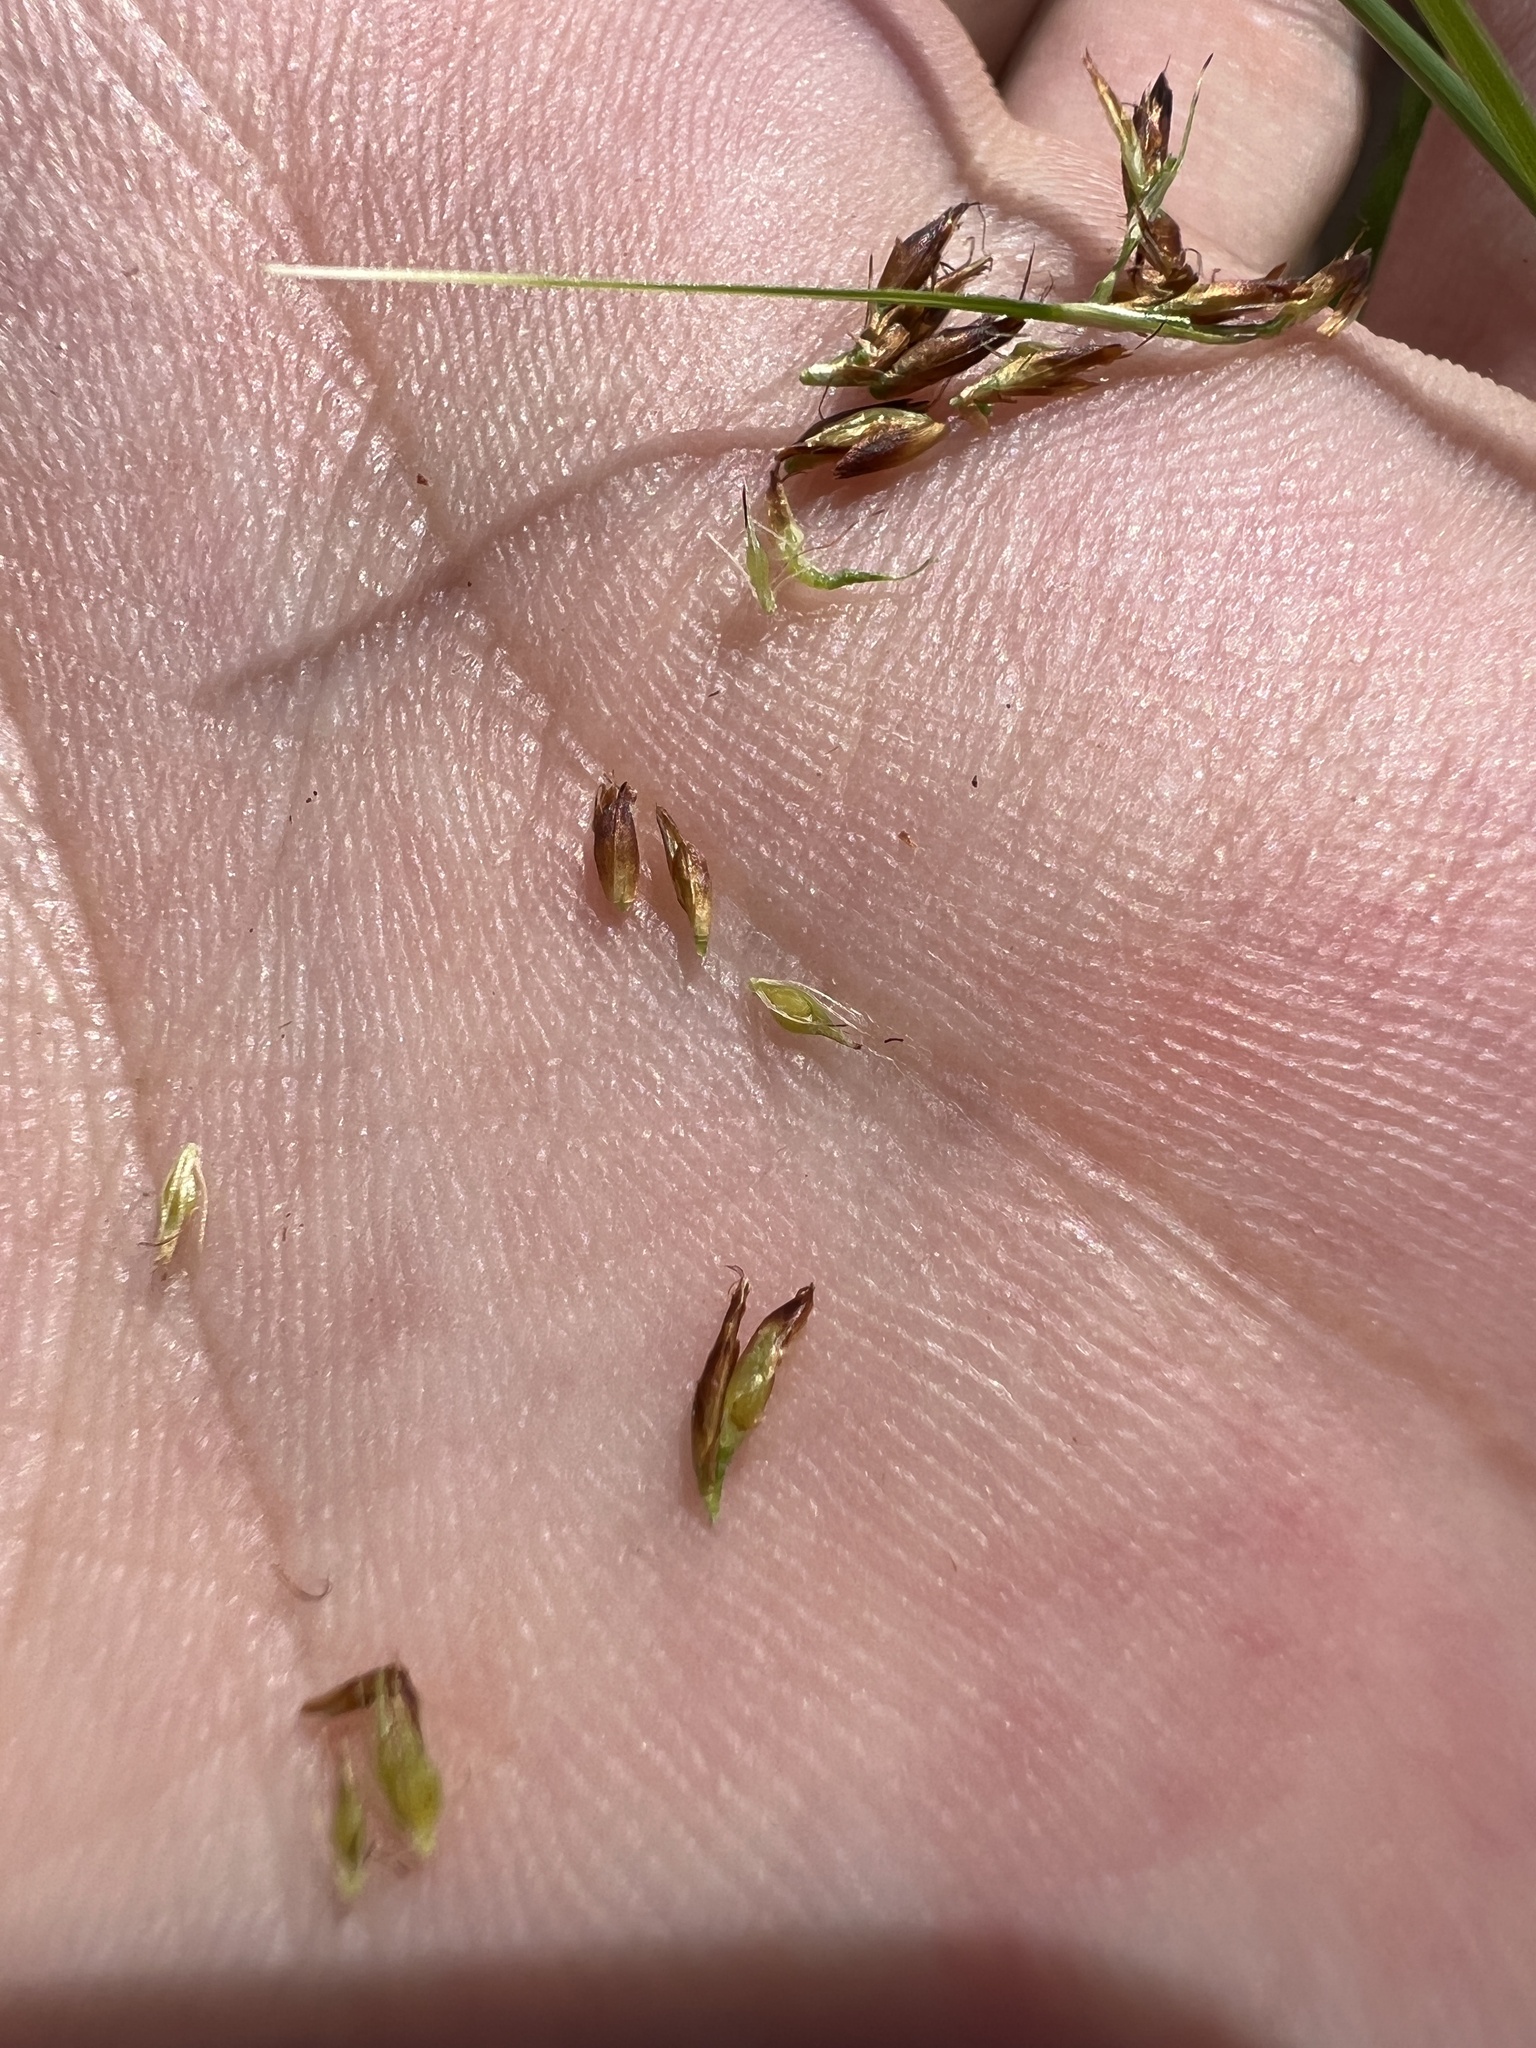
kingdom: Plantae
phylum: Tracheophyta
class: Liliopsida
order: Poales
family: Cyperaceae
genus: Rhynchospora
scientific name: Rhynchospora capitellata
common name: Brownish beaksedge
